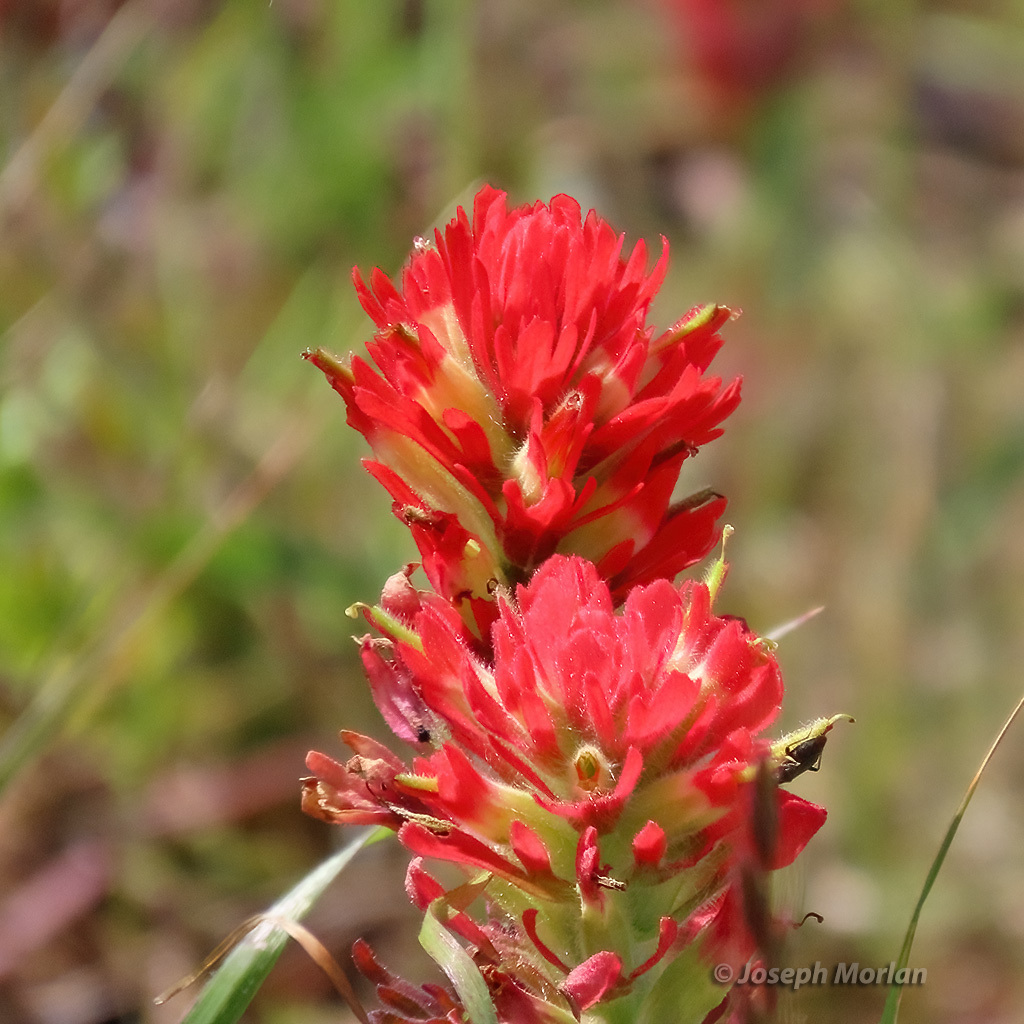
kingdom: Plantae
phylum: Tracheophyta
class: Magnoliopsida
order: Lamiales
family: Orobanchaceae
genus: Castilleja
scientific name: Castilleja affinis
